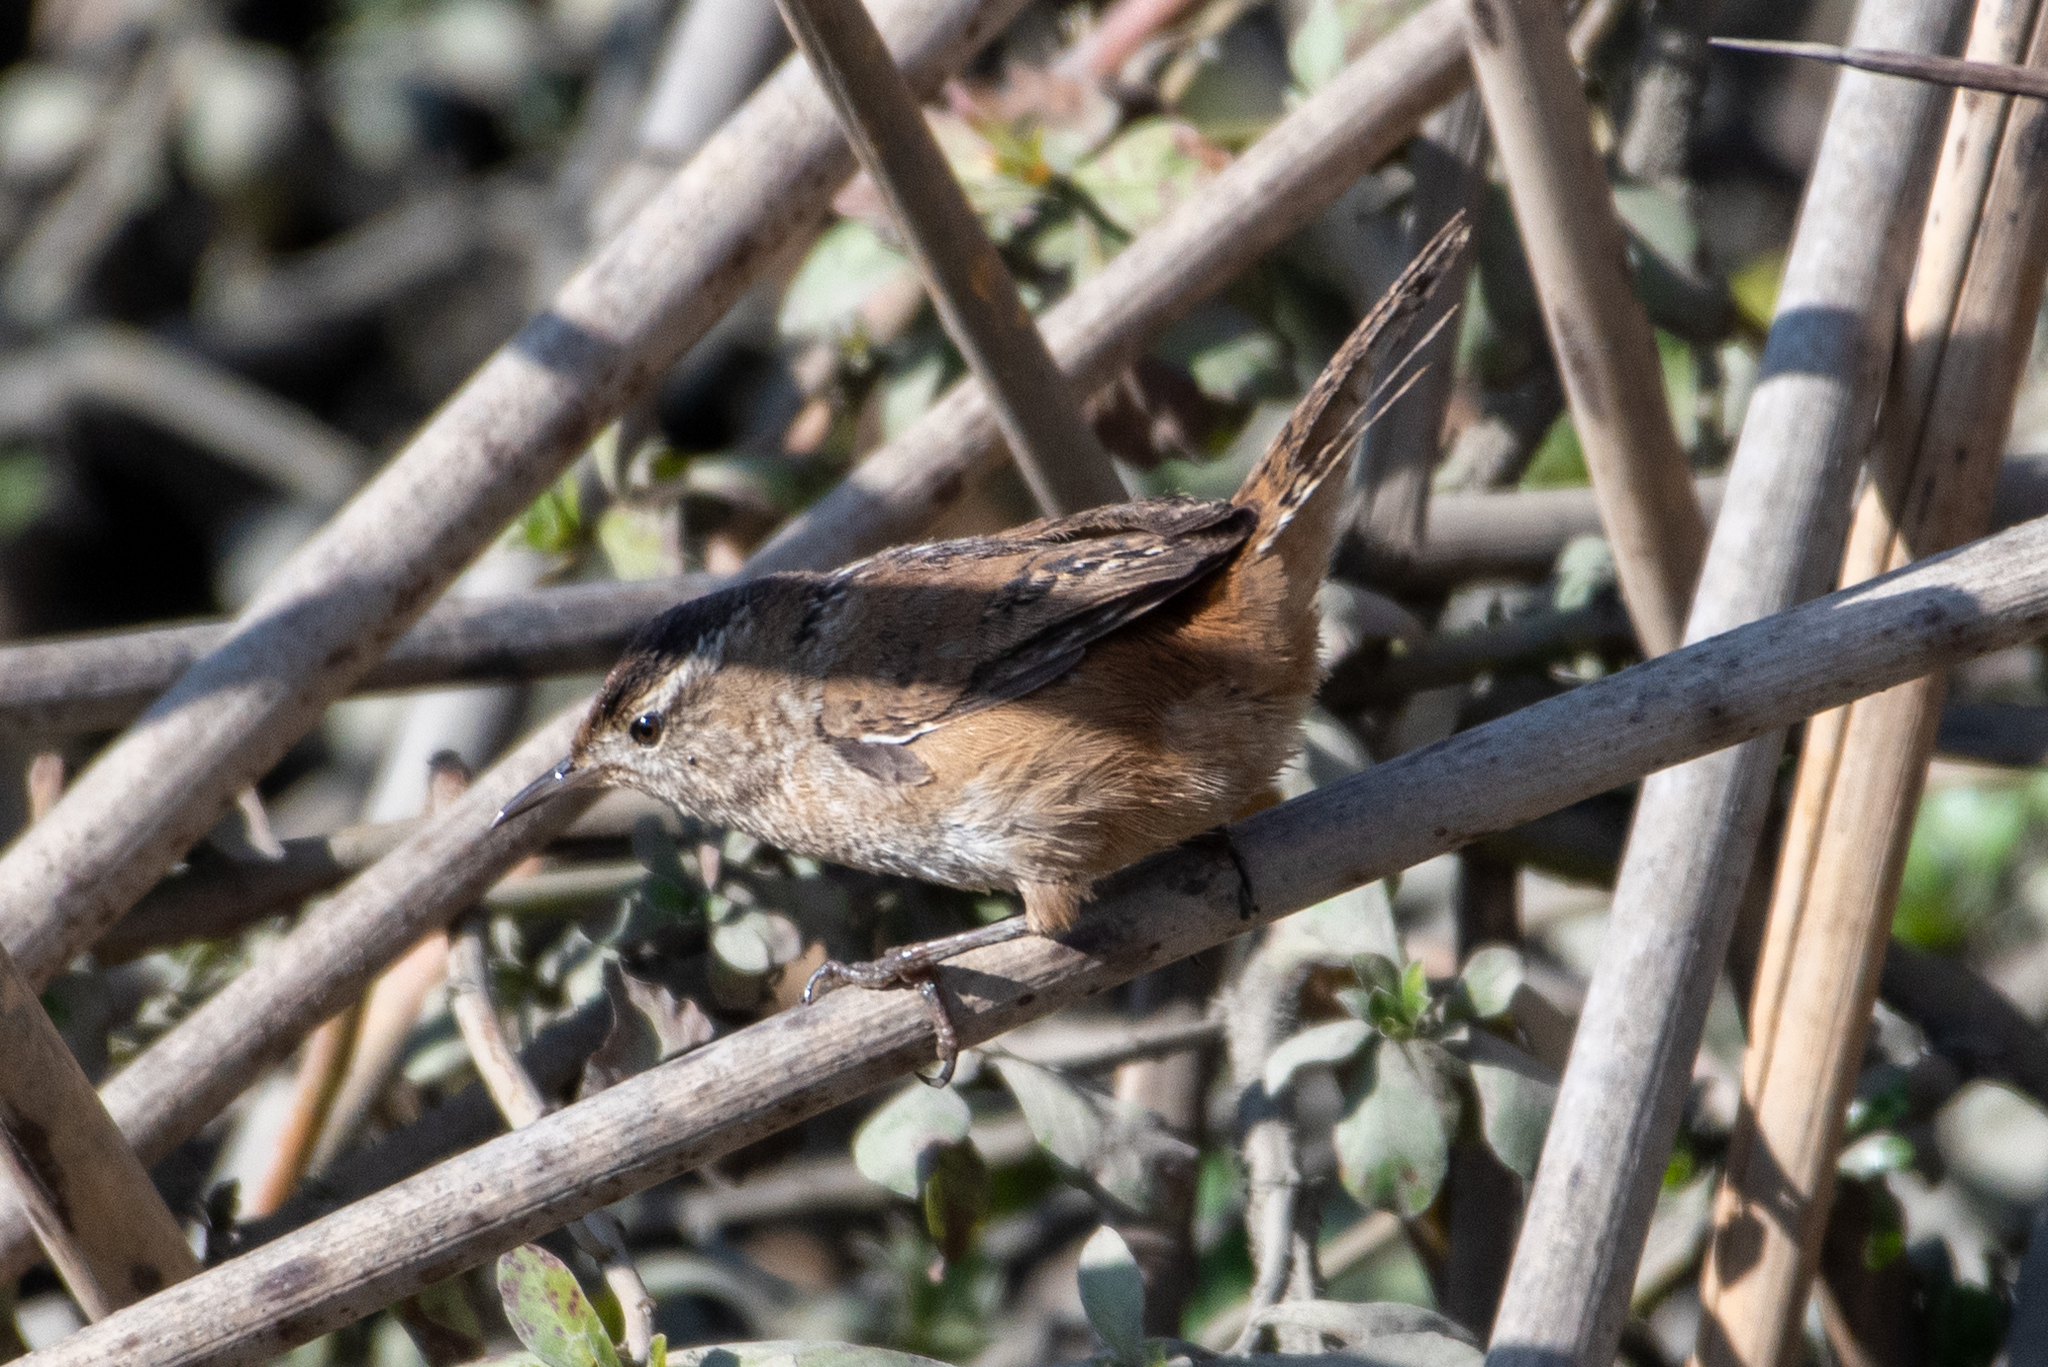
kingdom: Animalia
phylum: Chordata
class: Aves
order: Passeriformes
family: Troglodytidae
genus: Cistothorus
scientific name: Cistothorus palustris
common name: Marsh wren
